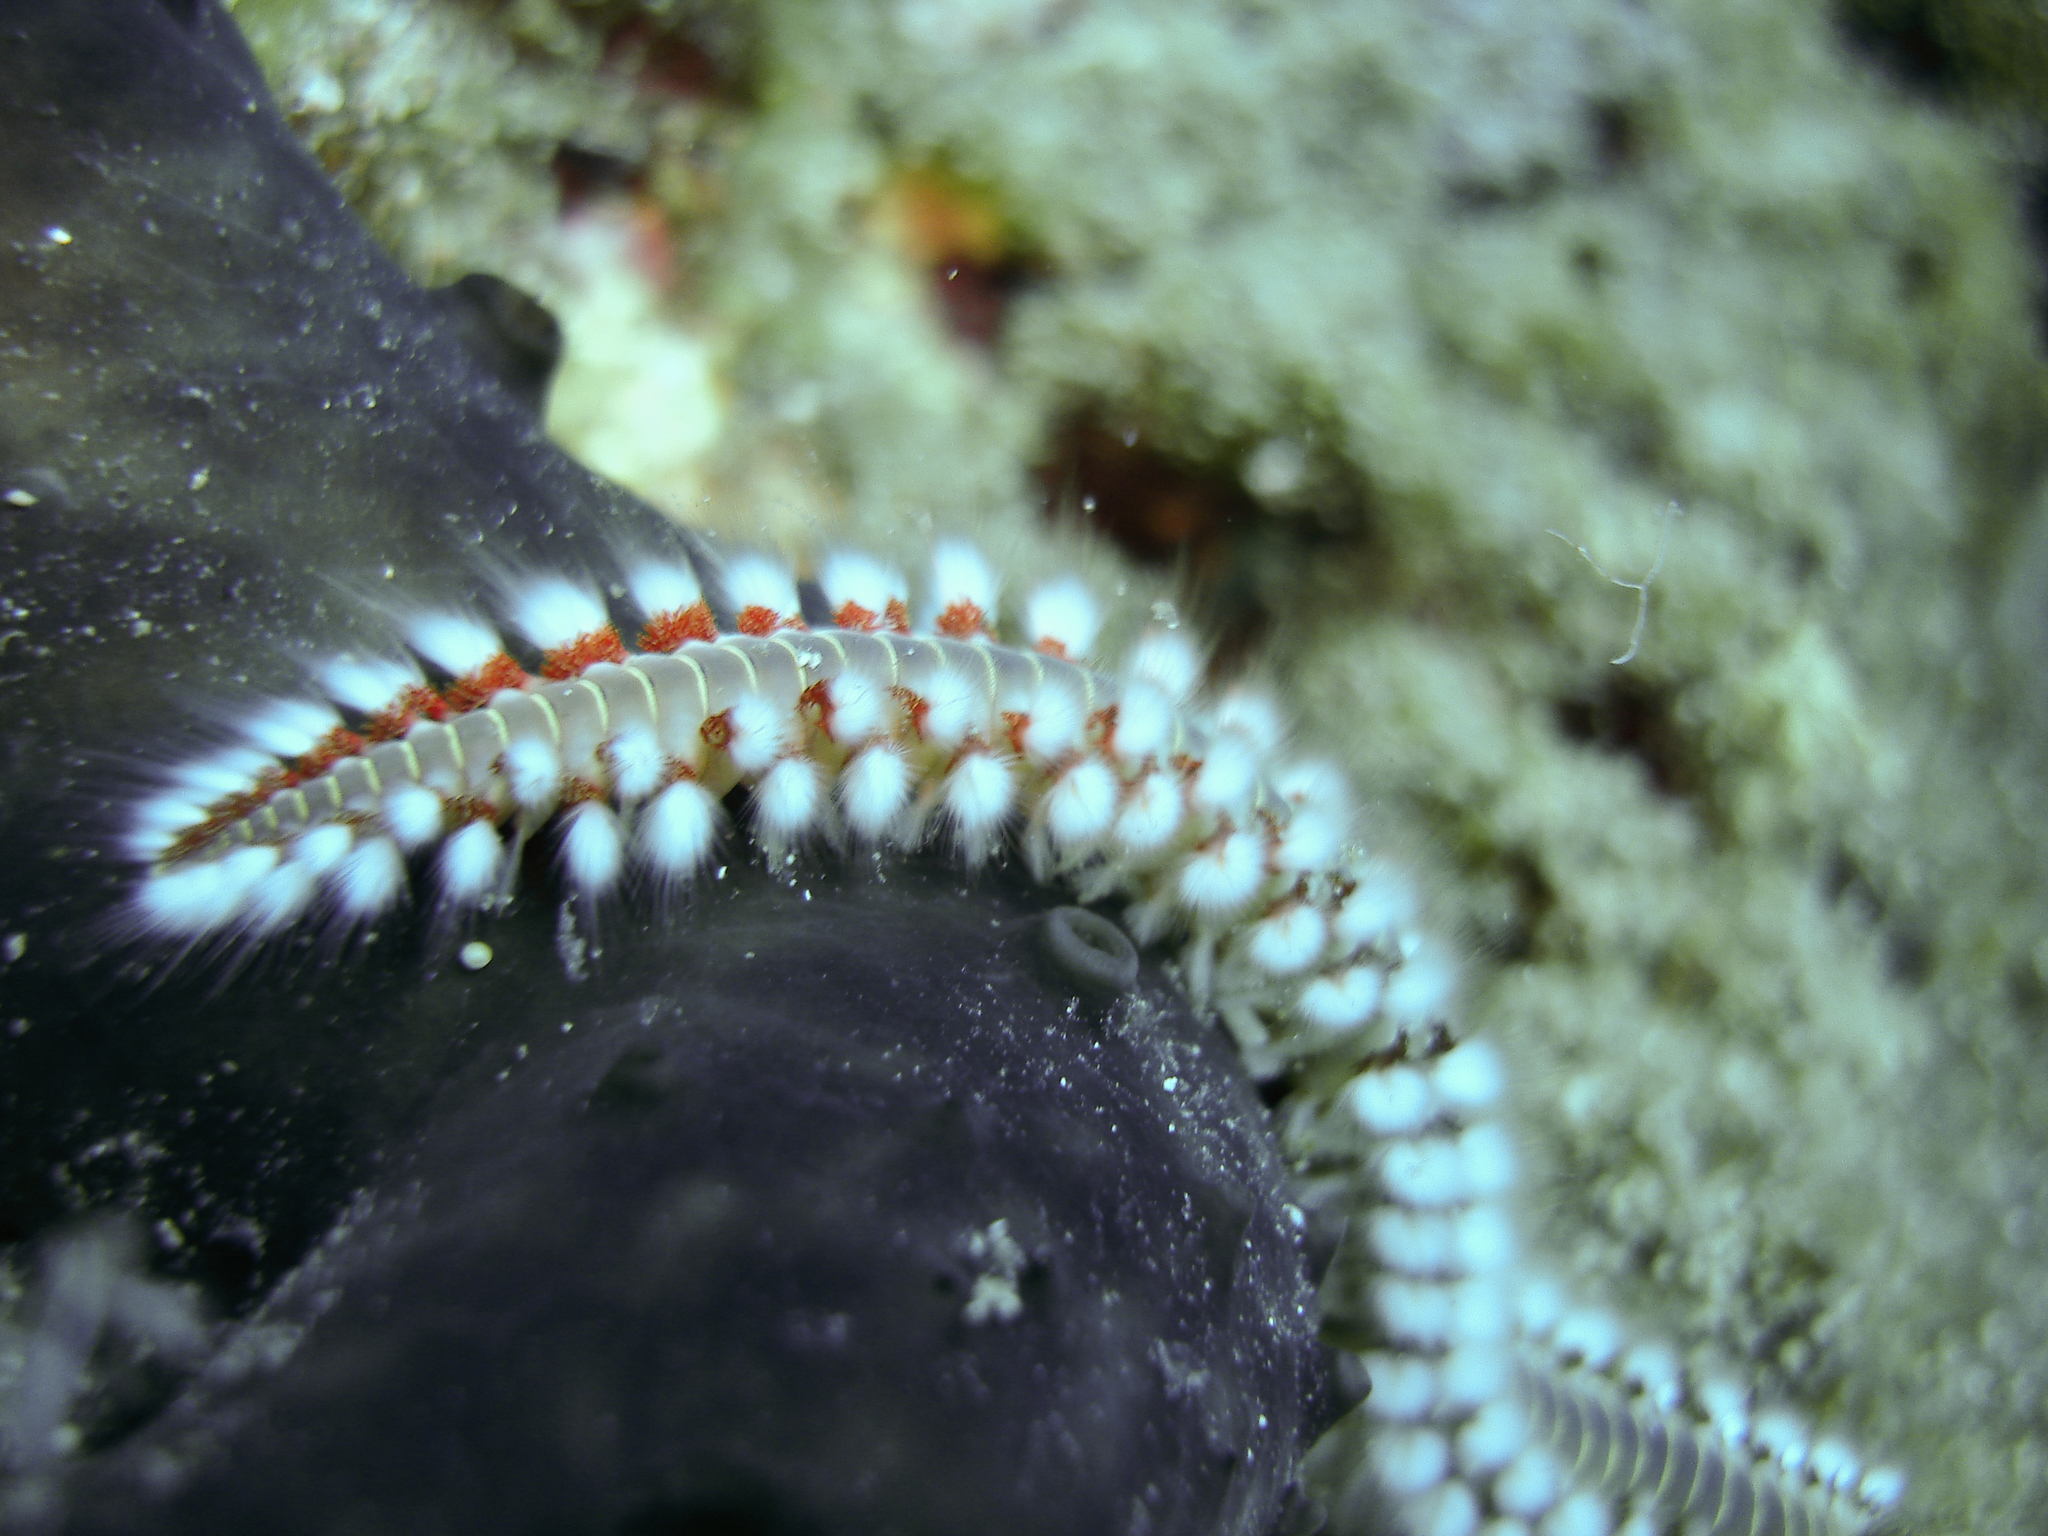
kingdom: Animalia
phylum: Annelida
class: Polychaeta
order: Amphinomida
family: Amphinomidae
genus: Hermodice
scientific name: Hermodice carunculata
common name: Bearded fireworm
